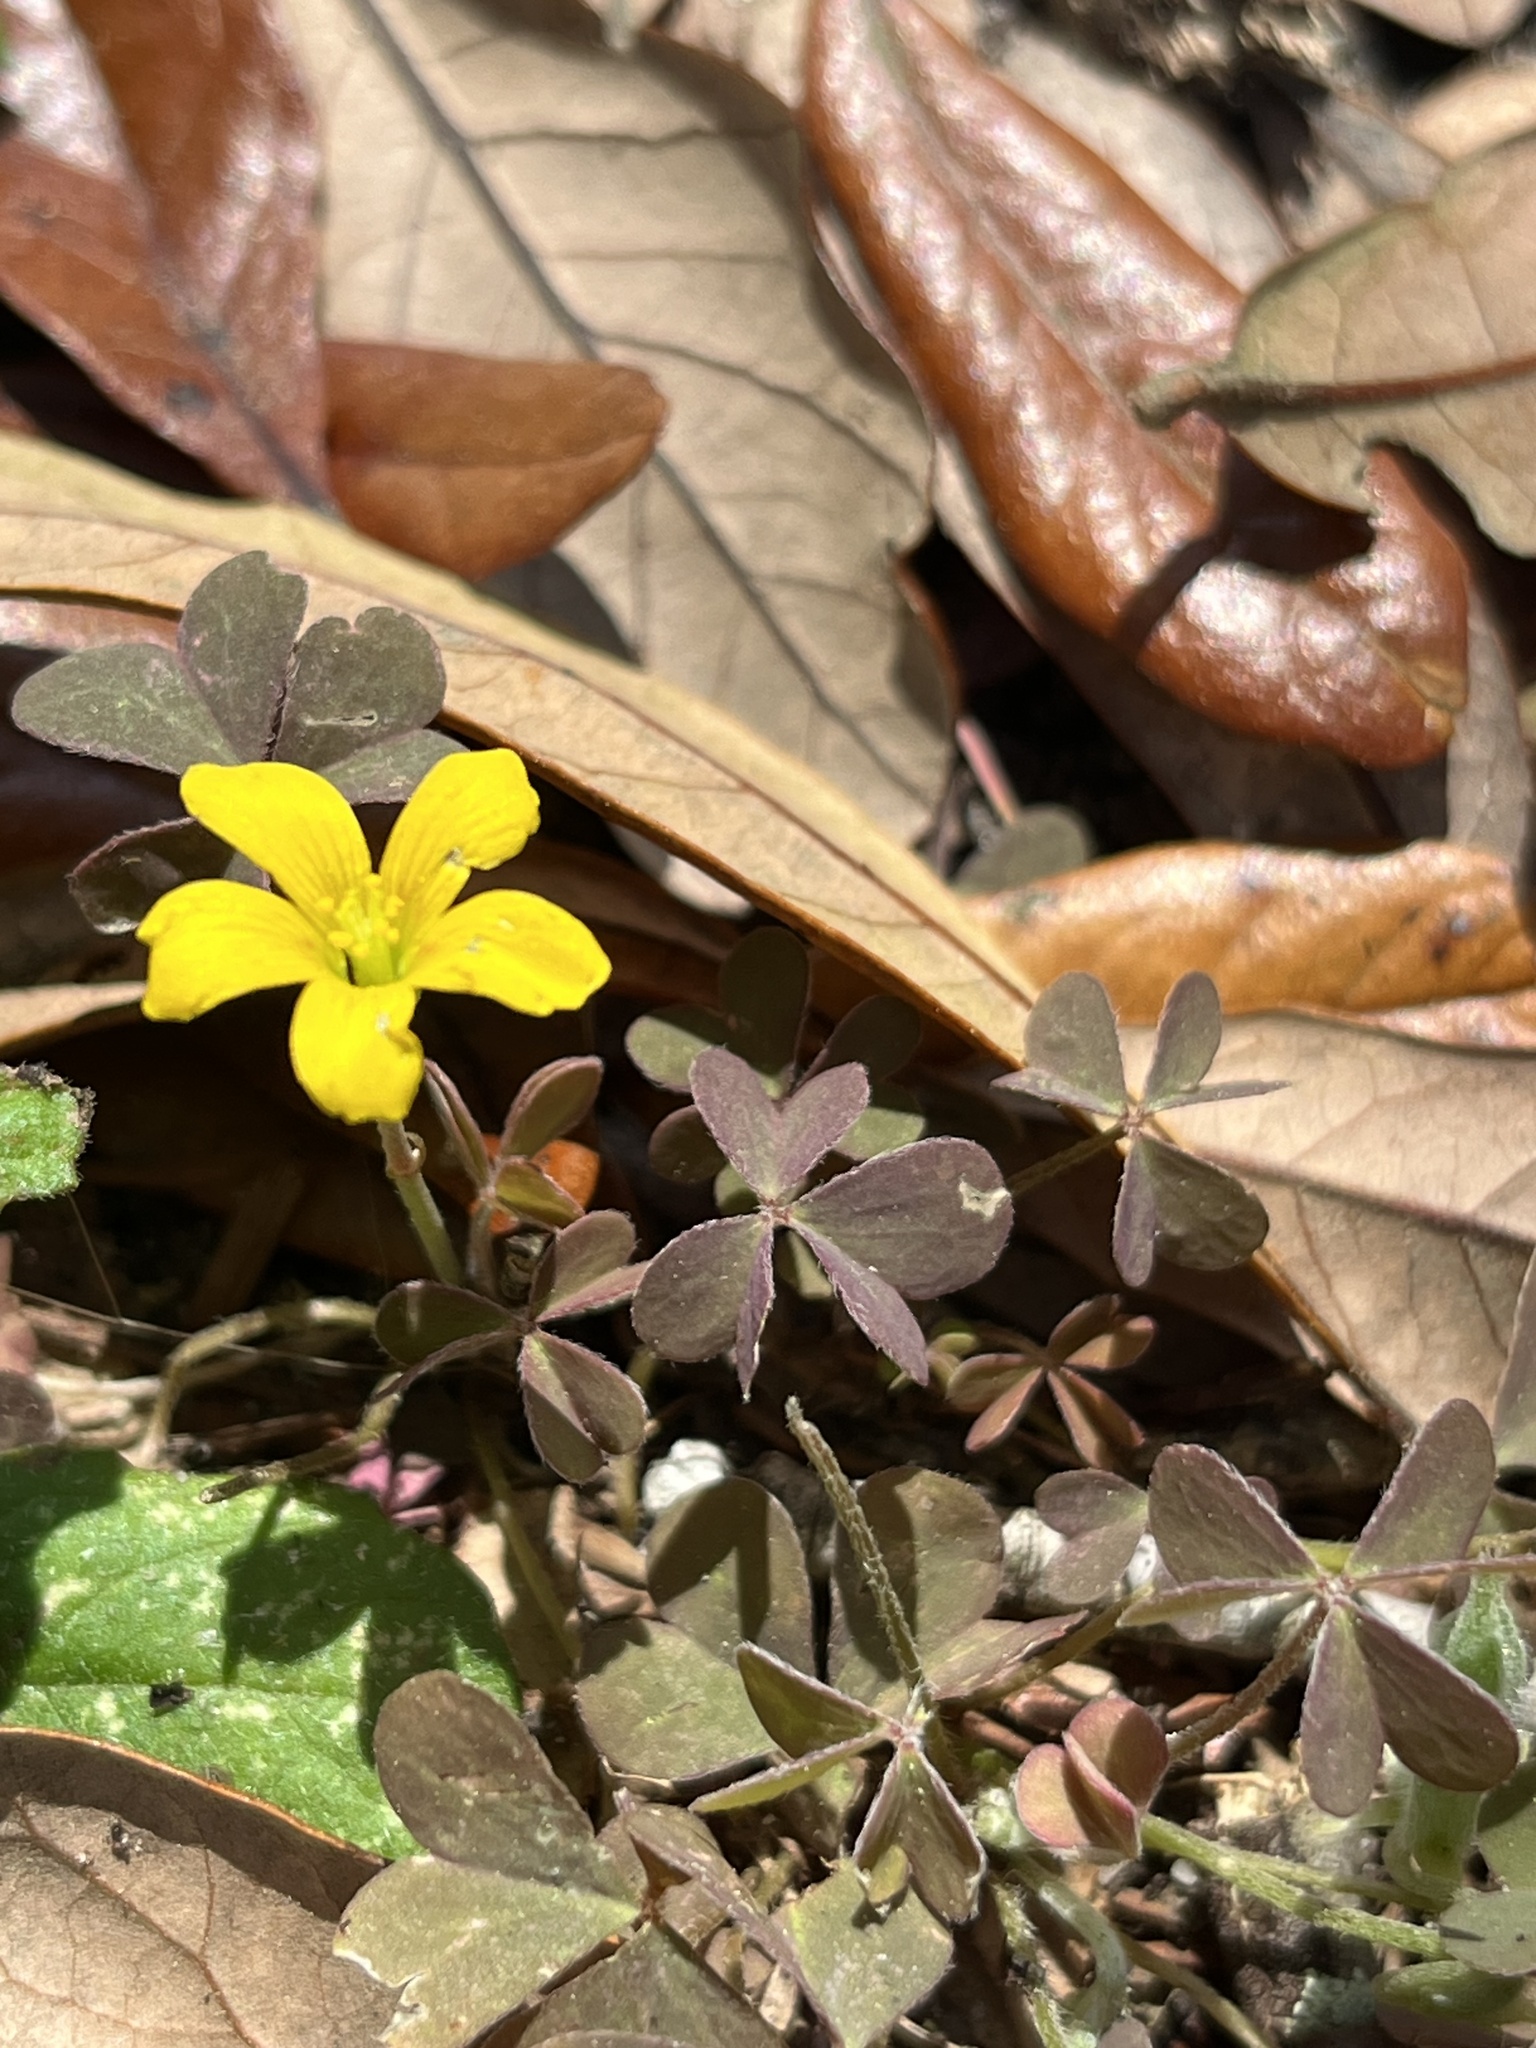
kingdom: Plantae
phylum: Tracheophyta
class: Magnoliopsida
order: Oxalidales
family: Oxalidaceae
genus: Oxalis
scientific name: Oxalis corniculata
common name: Procumbent yellow-sorrel
